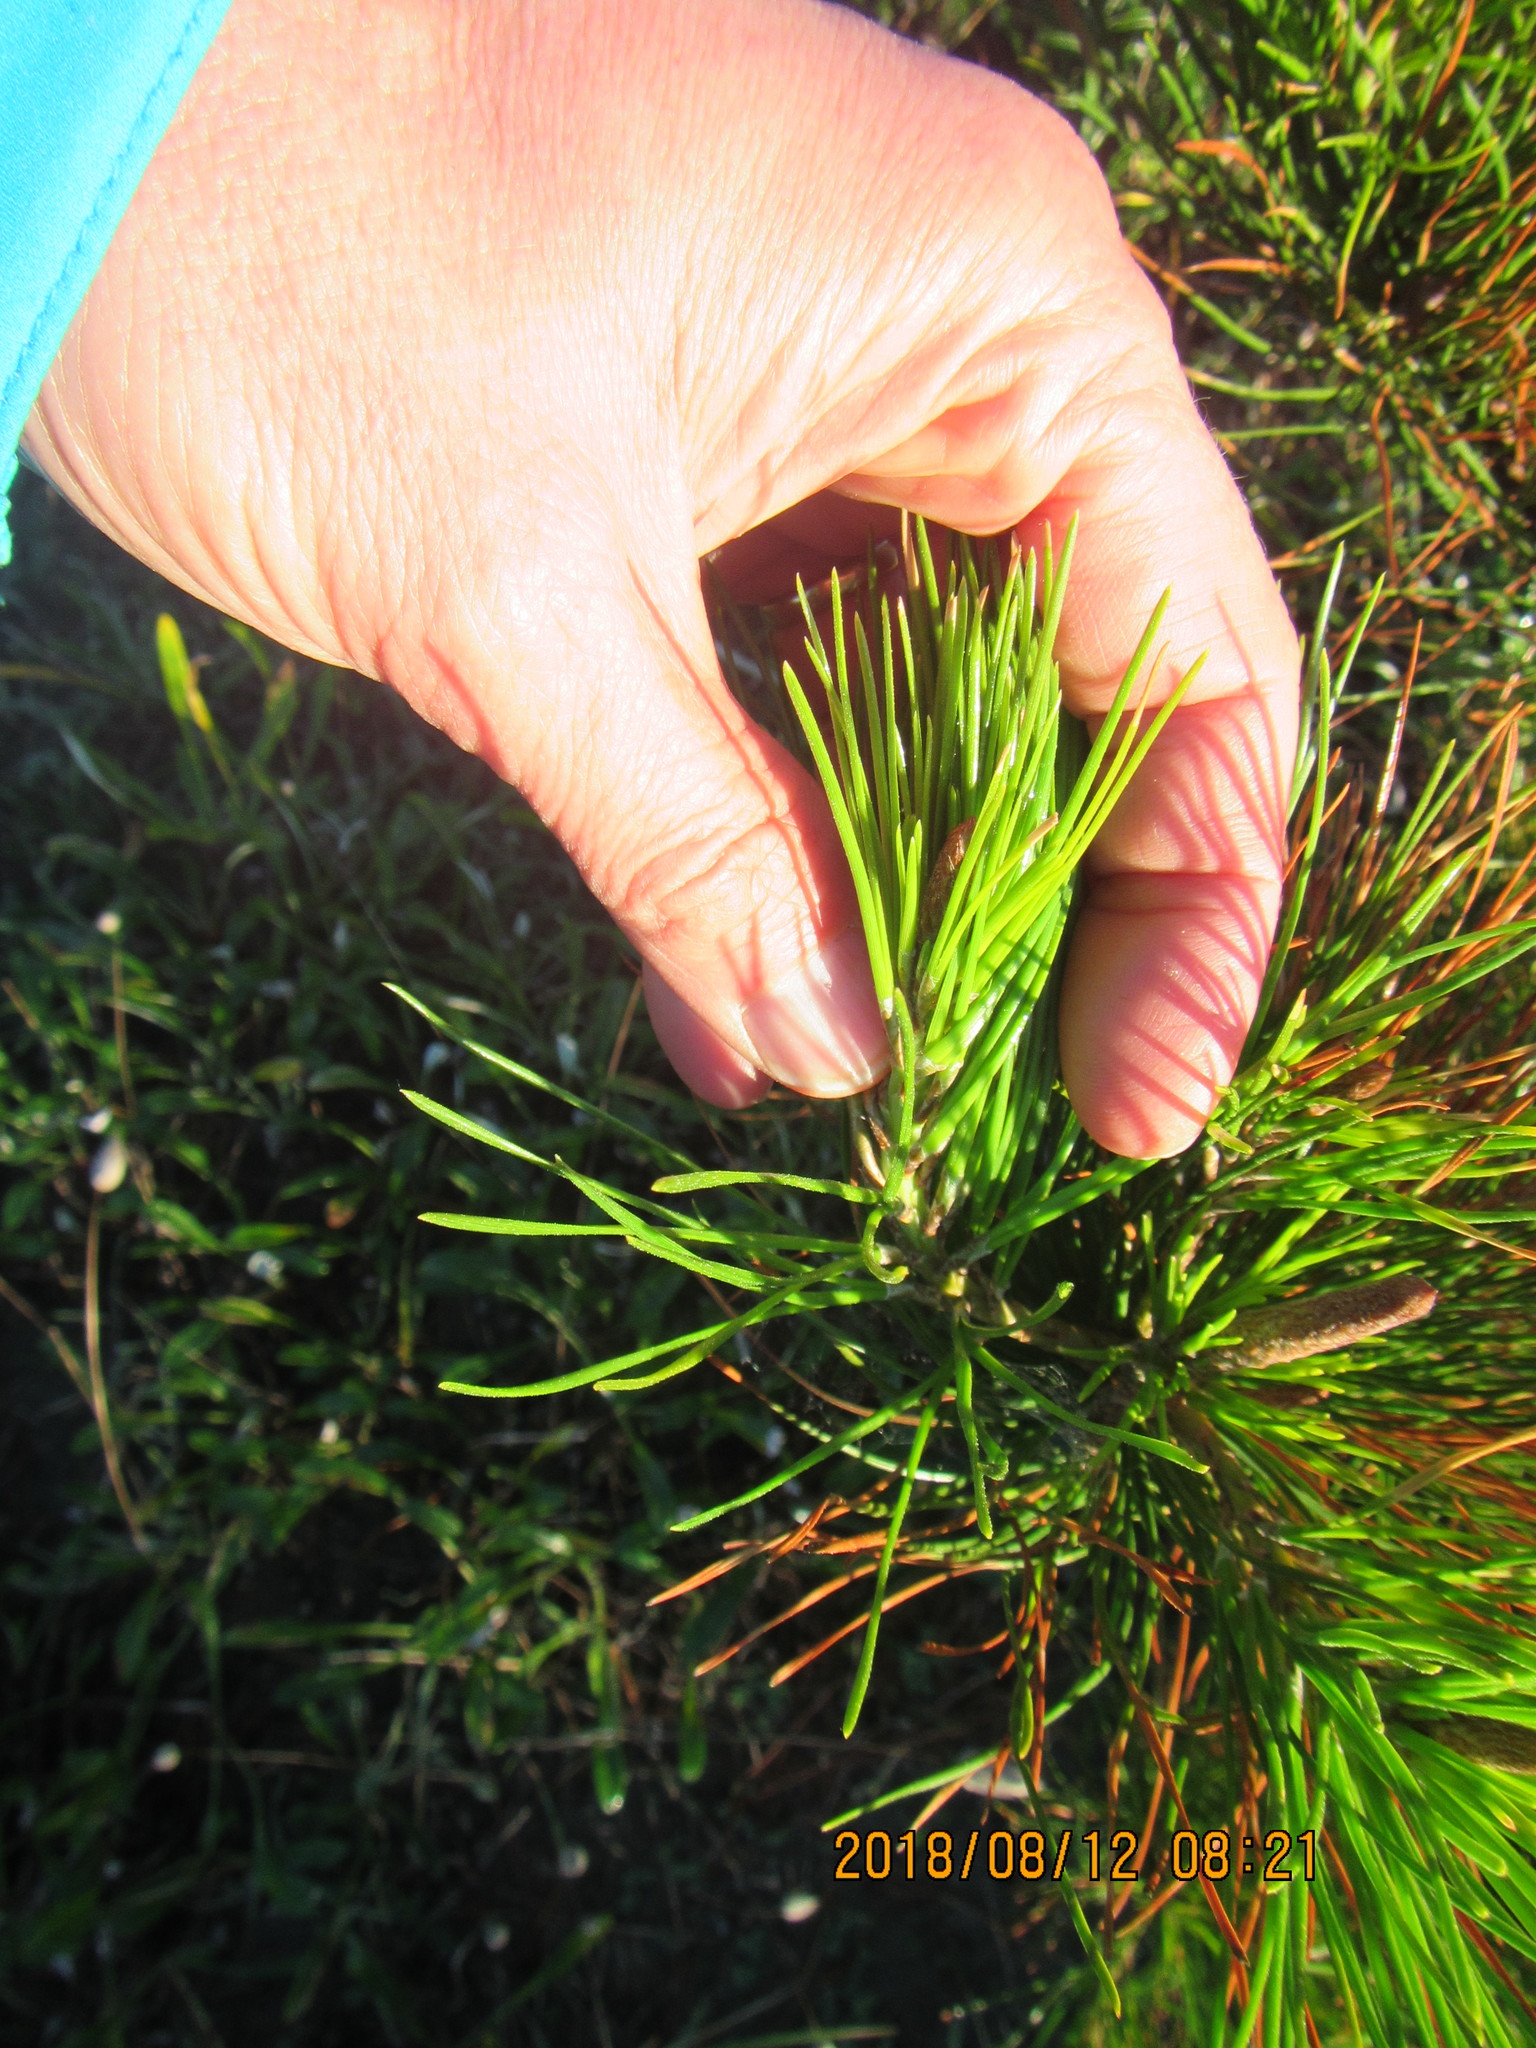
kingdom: Plantae
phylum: Tracheophyta
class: Pinopsida
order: Pinales
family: Pinaceae
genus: Pinus
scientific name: Pinus radiata
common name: Monterey pine
